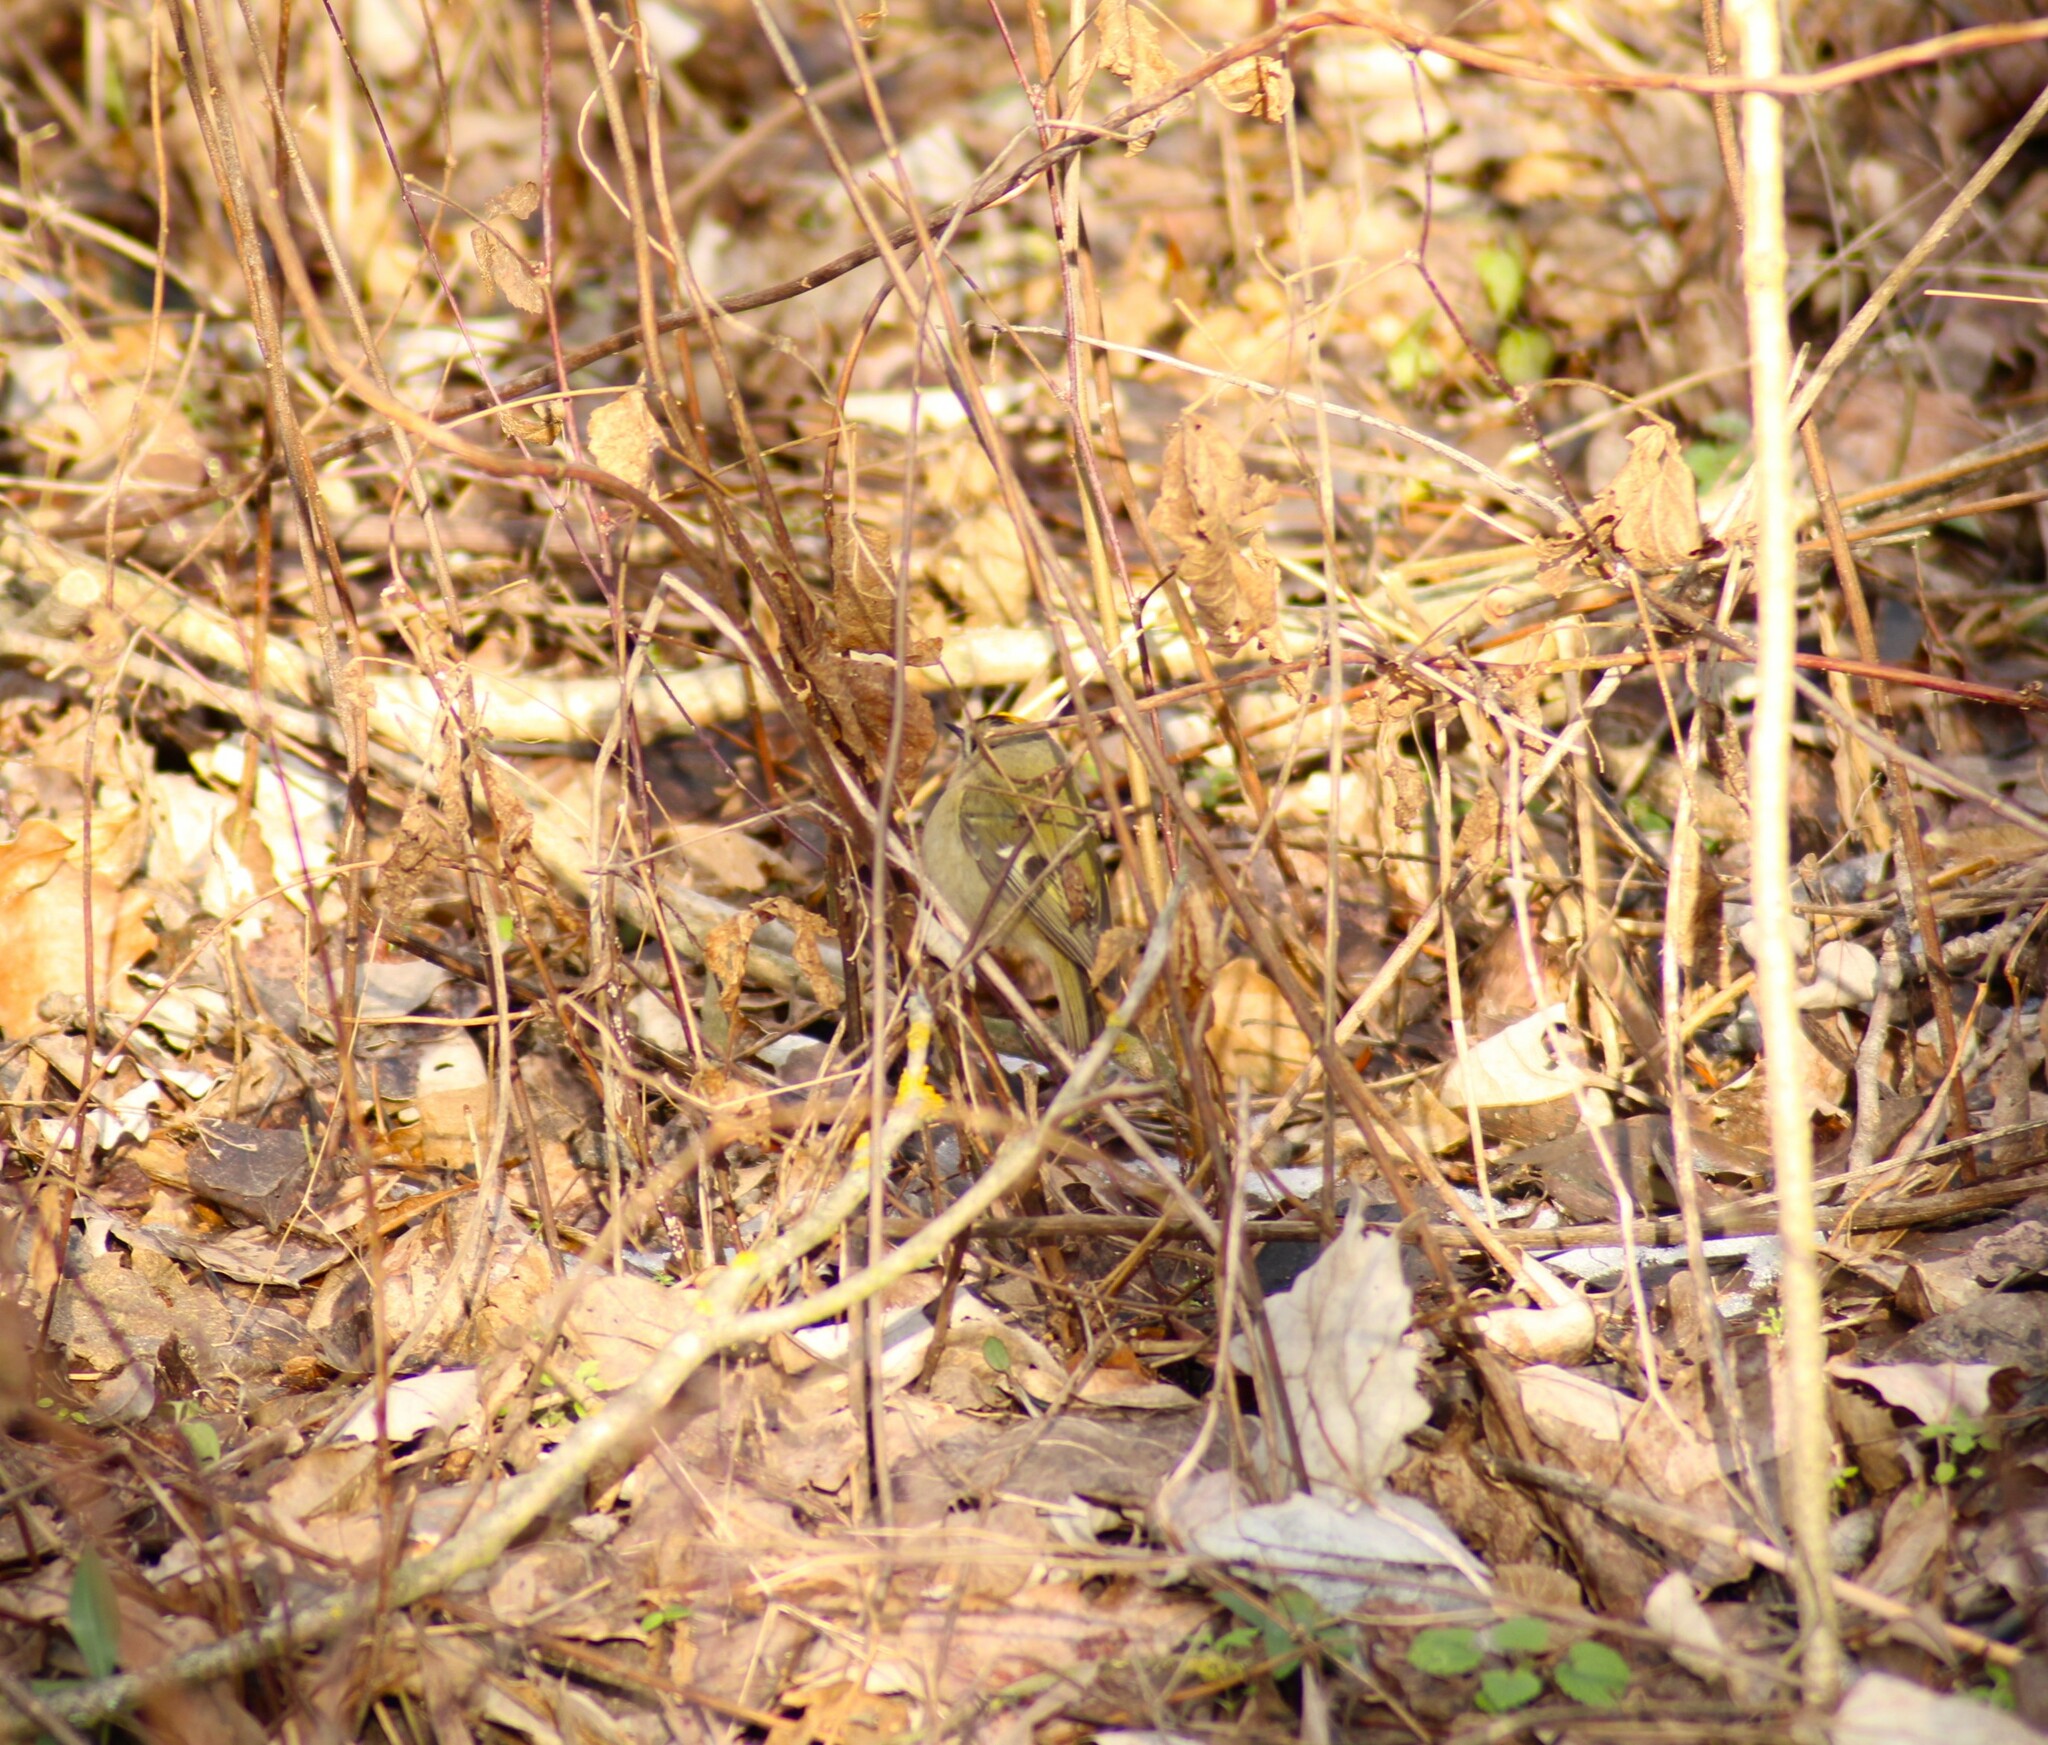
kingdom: Animalia
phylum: Chordata
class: Aves
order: Passeriformes
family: Regulidae
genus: Regulus
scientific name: Regulus regulus
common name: Goldcrest
